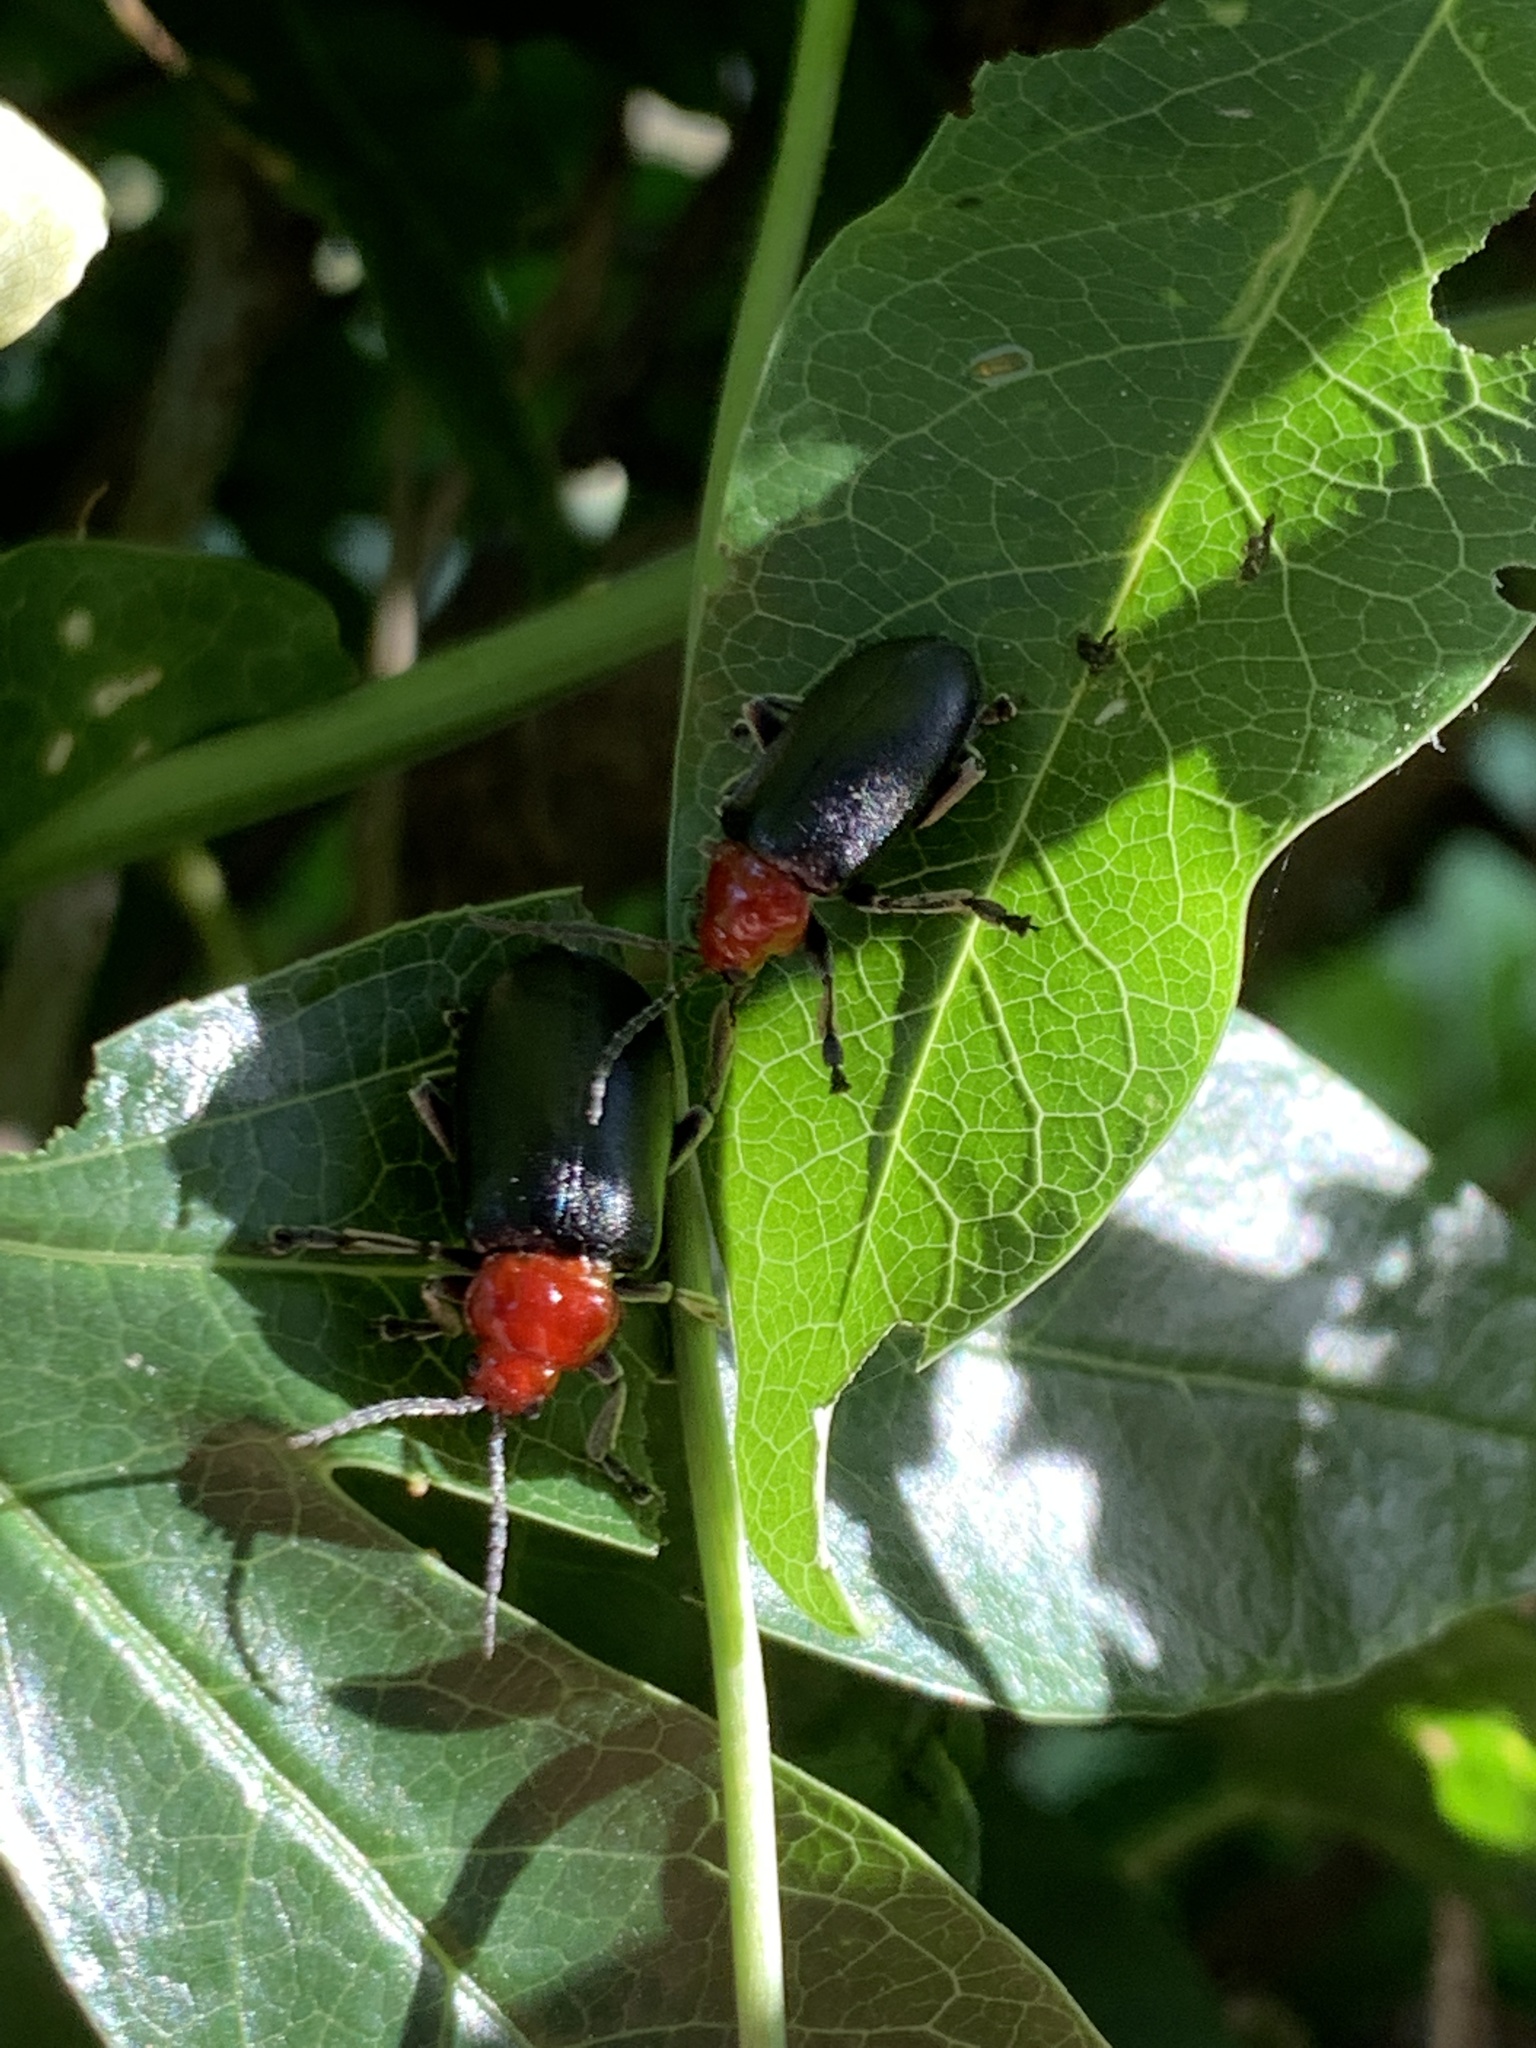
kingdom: Animalia
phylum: Arthropoda
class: Insecta
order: Coleoptera
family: Chrysomelidae
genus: Cacoscelis
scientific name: Cacoscelis
